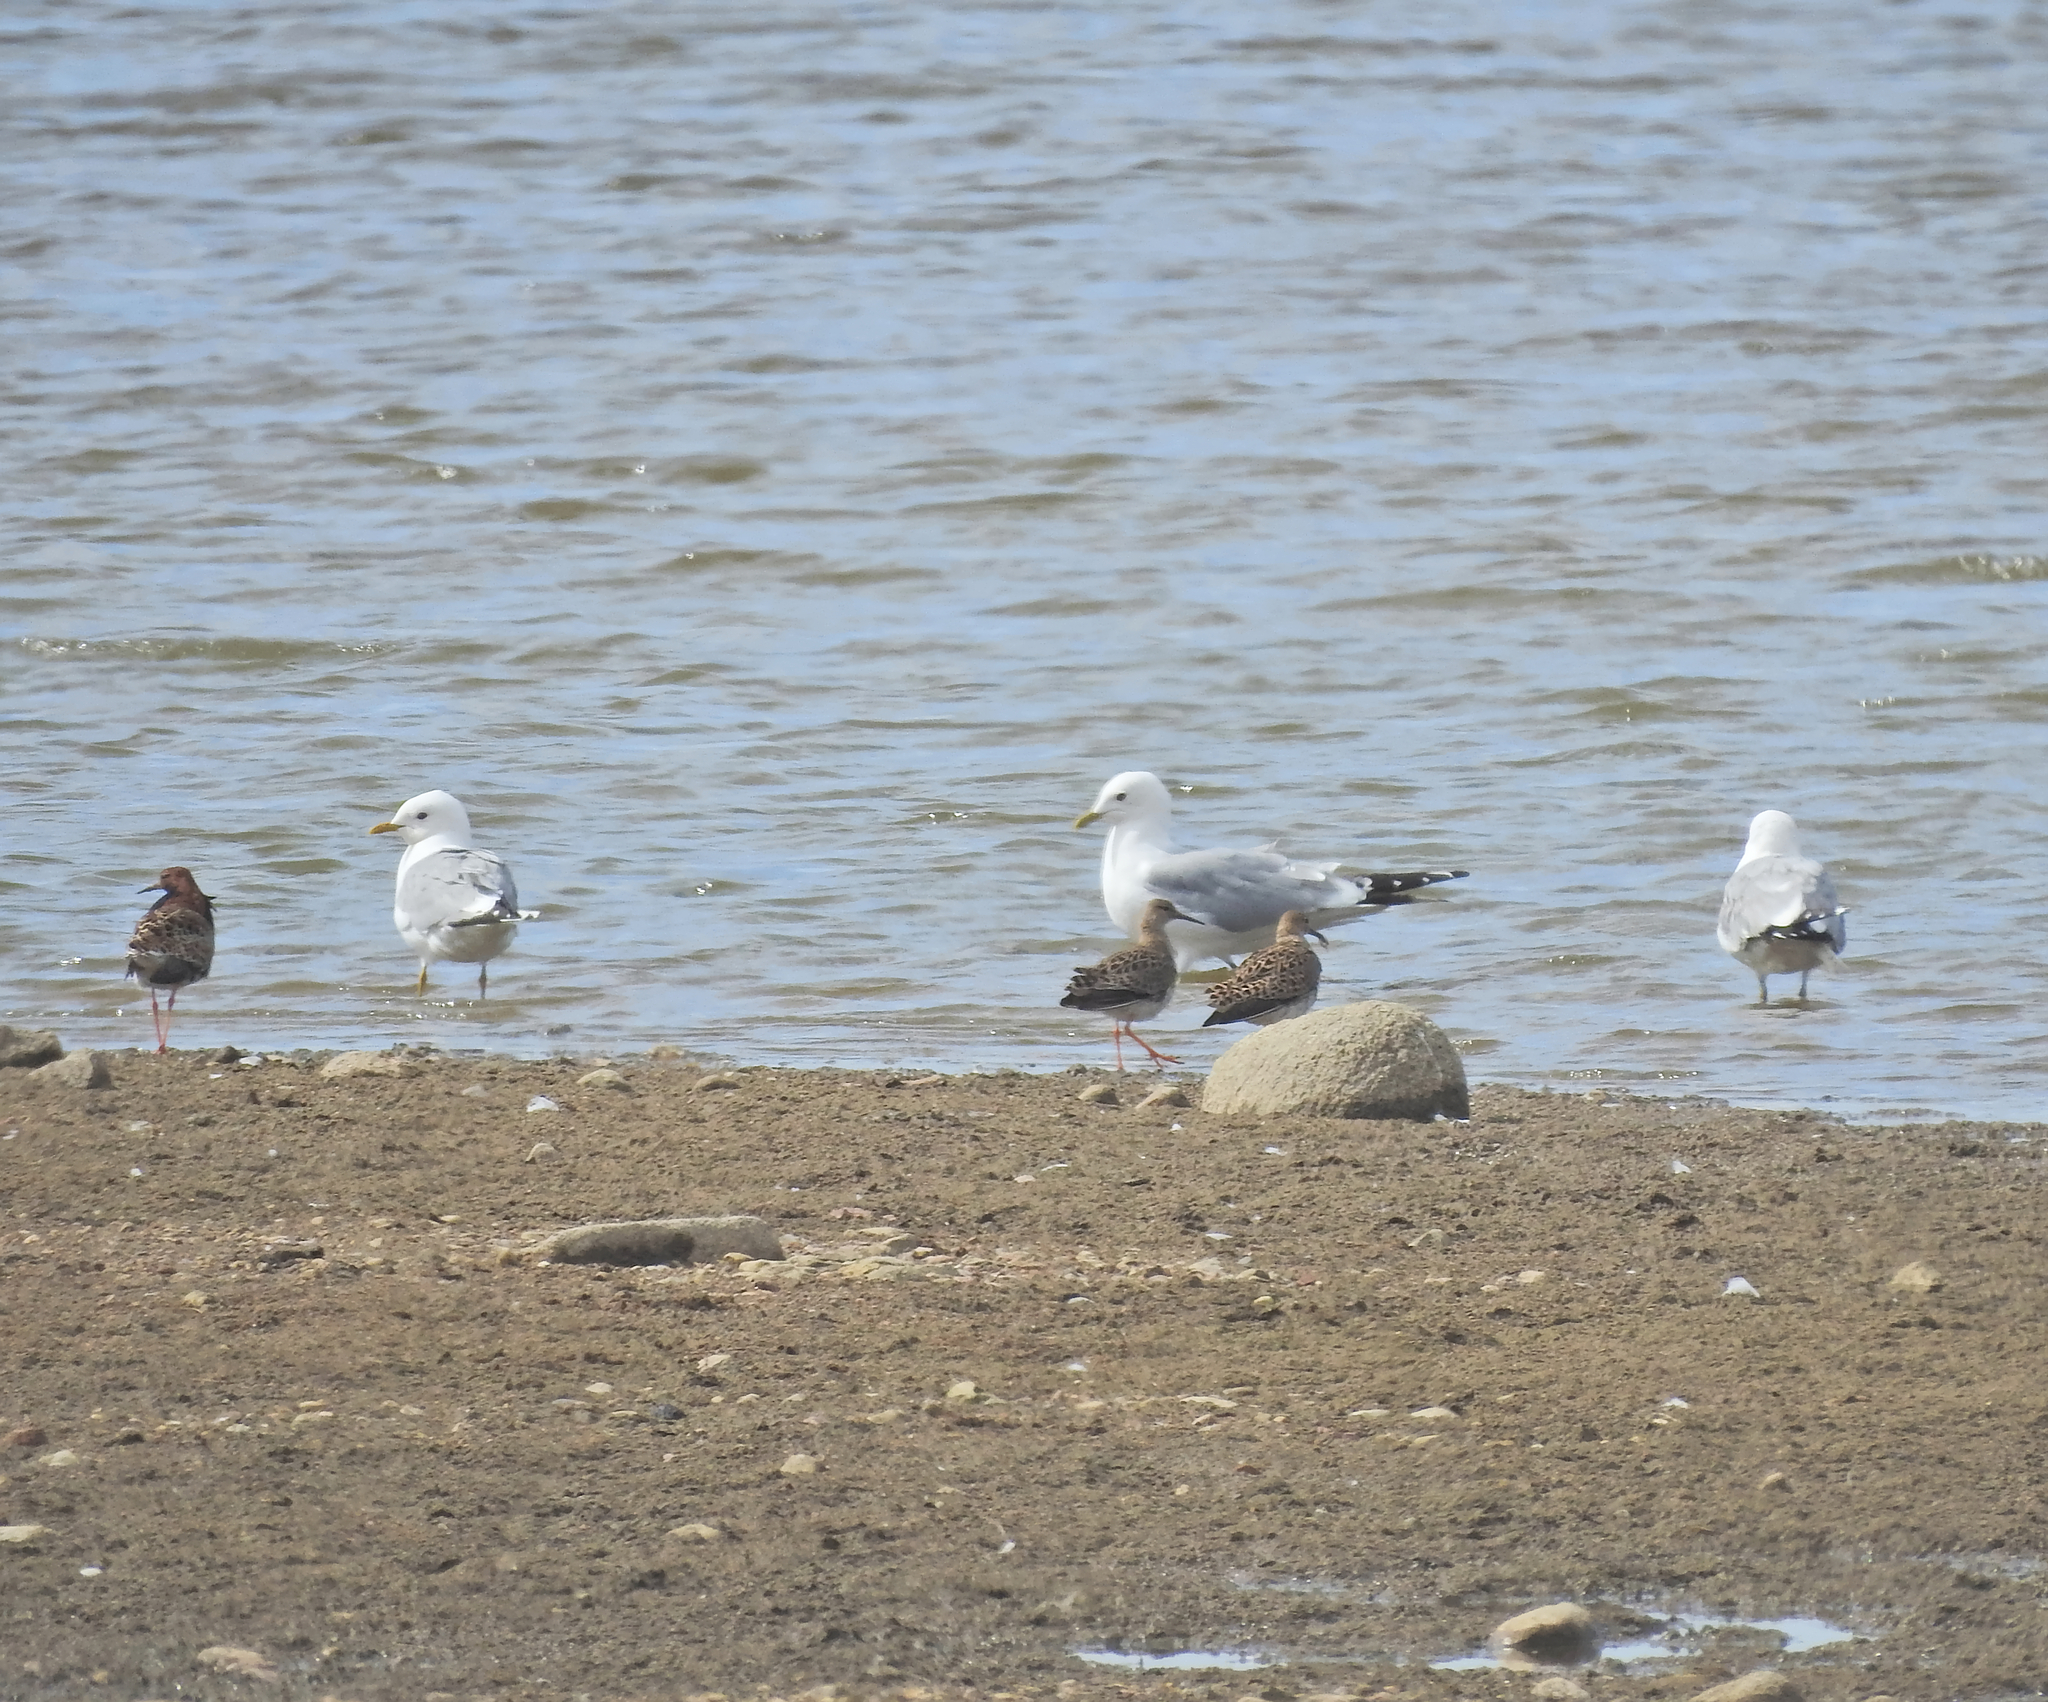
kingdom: Animalia
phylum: Chordata
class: Aves
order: Charadriiformes
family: Laridae
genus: Larus
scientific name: Larus canus
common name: Mew gull
